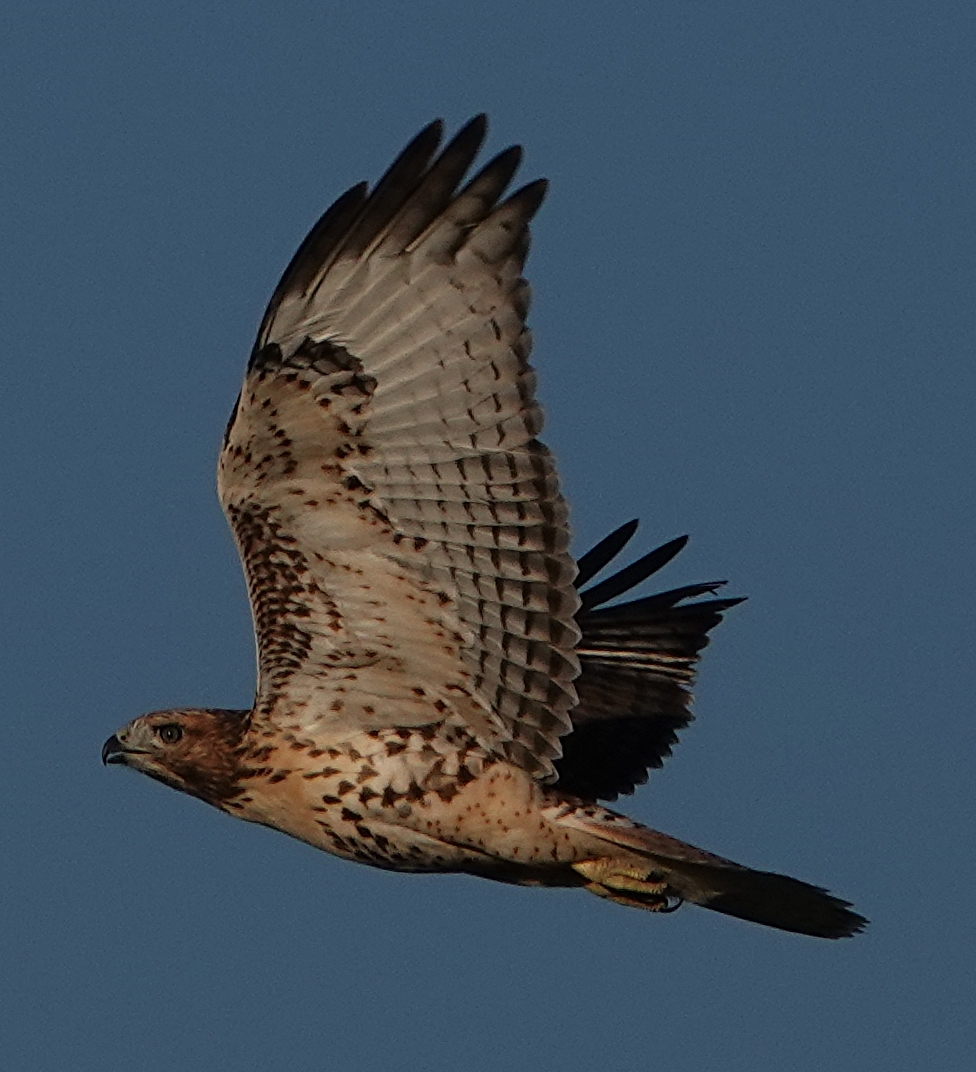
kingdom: Animalia
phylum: Chordata
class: Aves
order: Accipitriformes
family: Accipitridae
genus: Buteo
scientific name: Buteo jamaicensis
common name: Red-tailed hawk
